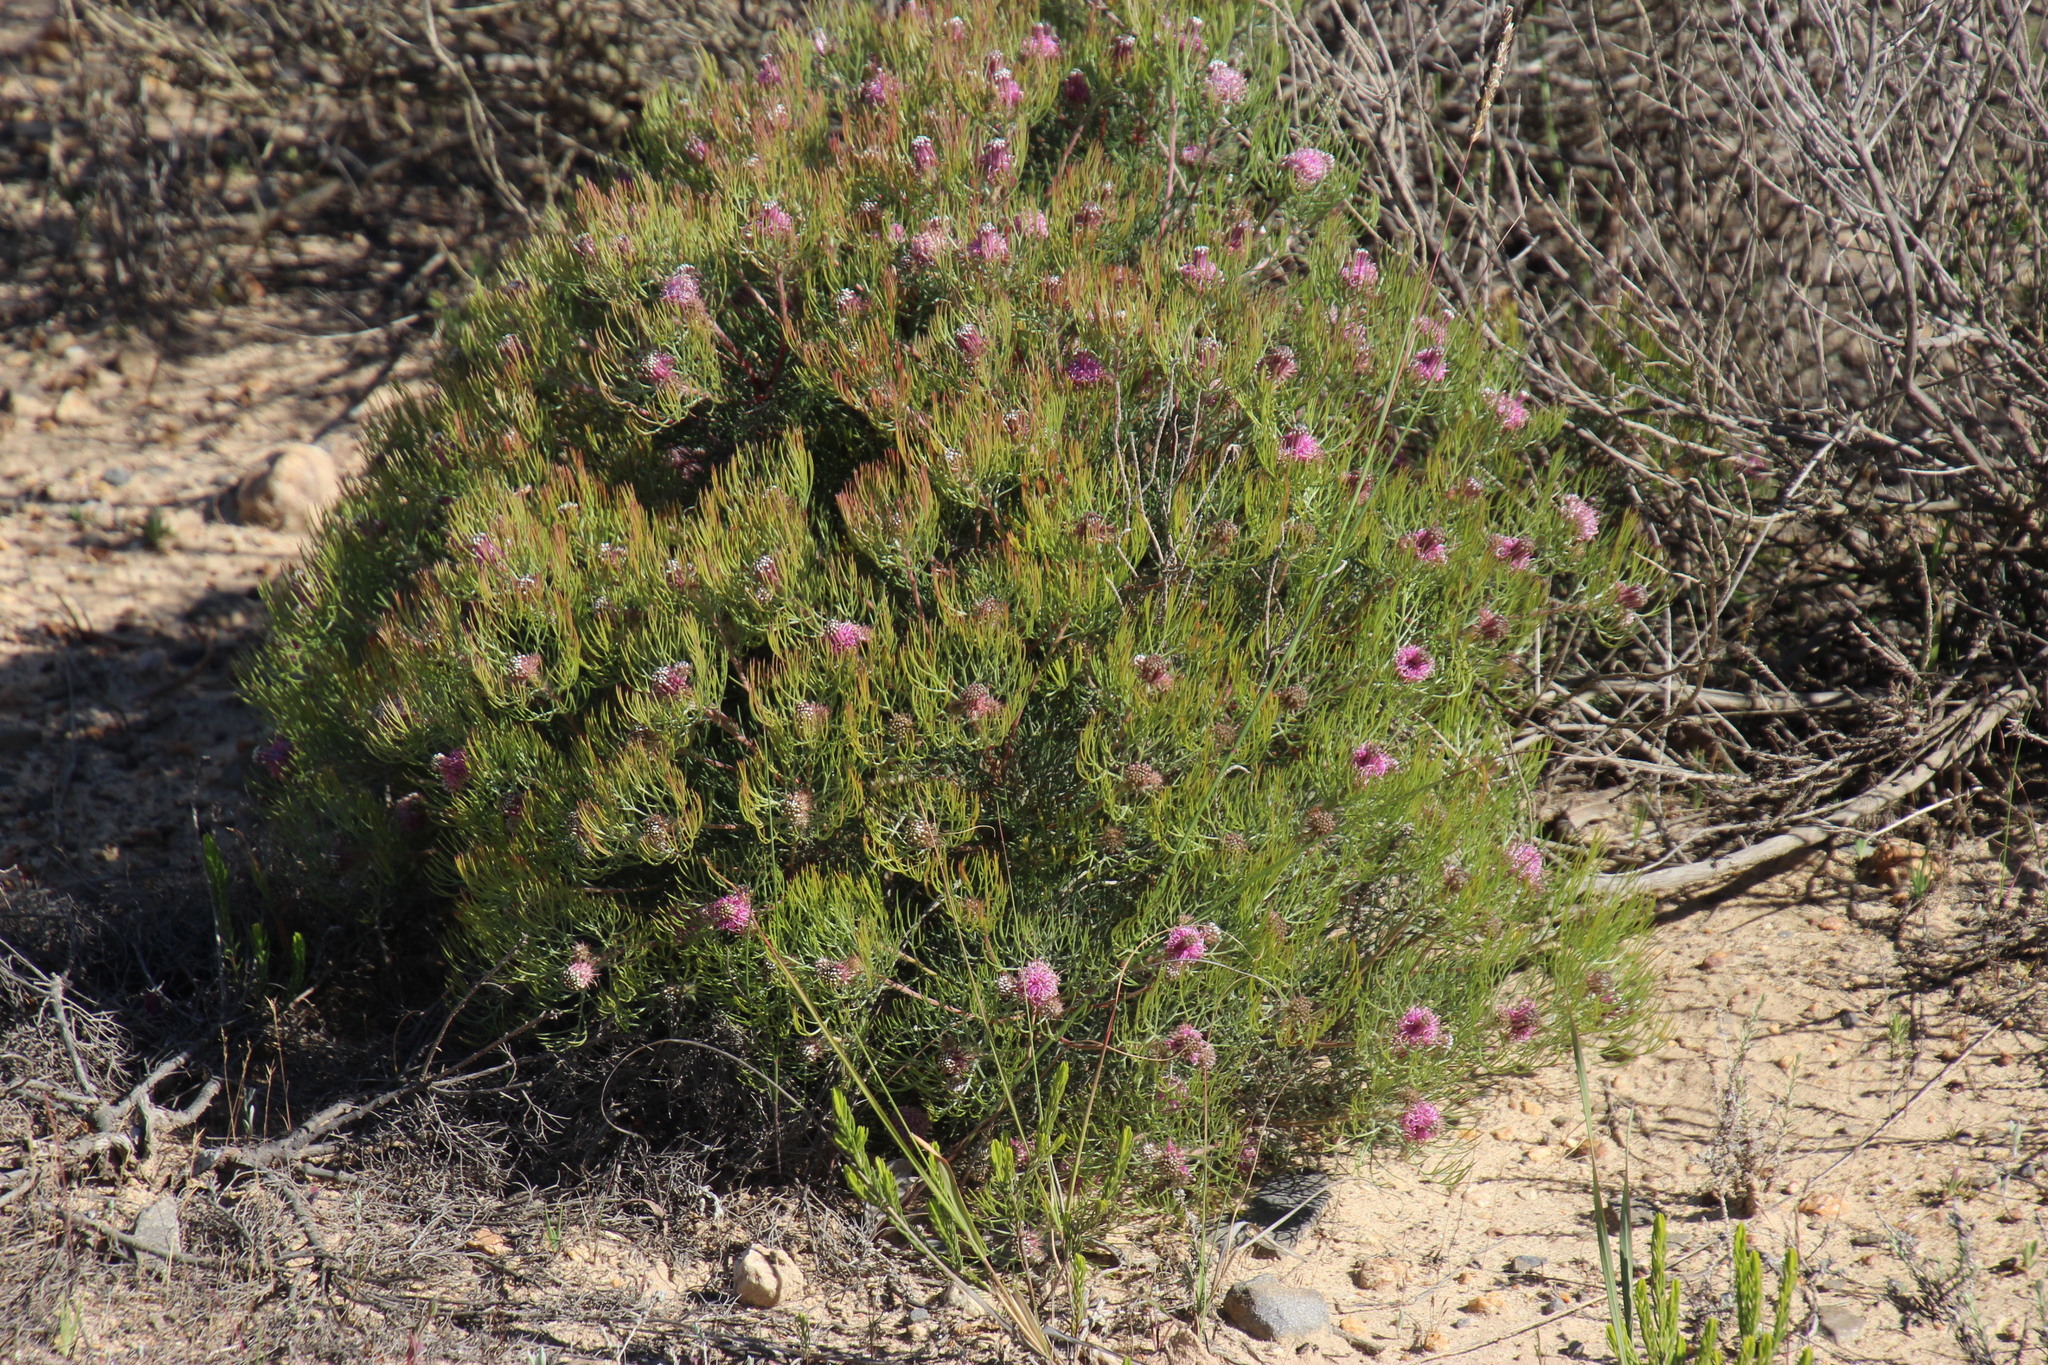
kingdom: Plantae
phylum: Tracheophyta
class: Magnoliopsida
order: Proteales
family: Proteaceae
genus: Serruria
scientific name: Serruria fasciflora
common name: Common pin spiderhead
